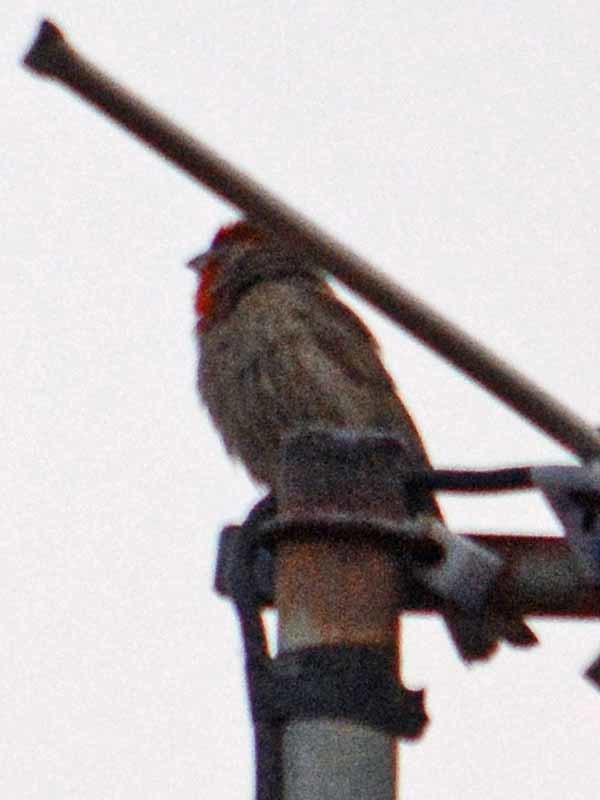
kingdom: Animalia
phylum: Chordata
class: Aves
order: Passeriformes
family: Fringillidae
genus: Haemorhous
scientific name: Haemorhous mexicanus
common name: House finch
